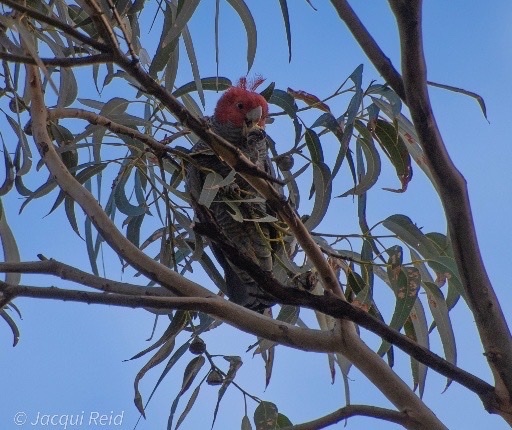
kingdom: Animalia
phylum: Chordata
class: Aves
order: Psittaciformes
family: Psittacidae
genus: Callocephalon
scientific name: Callocephalon fimbriatum
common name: Gang-gang cockatoo
